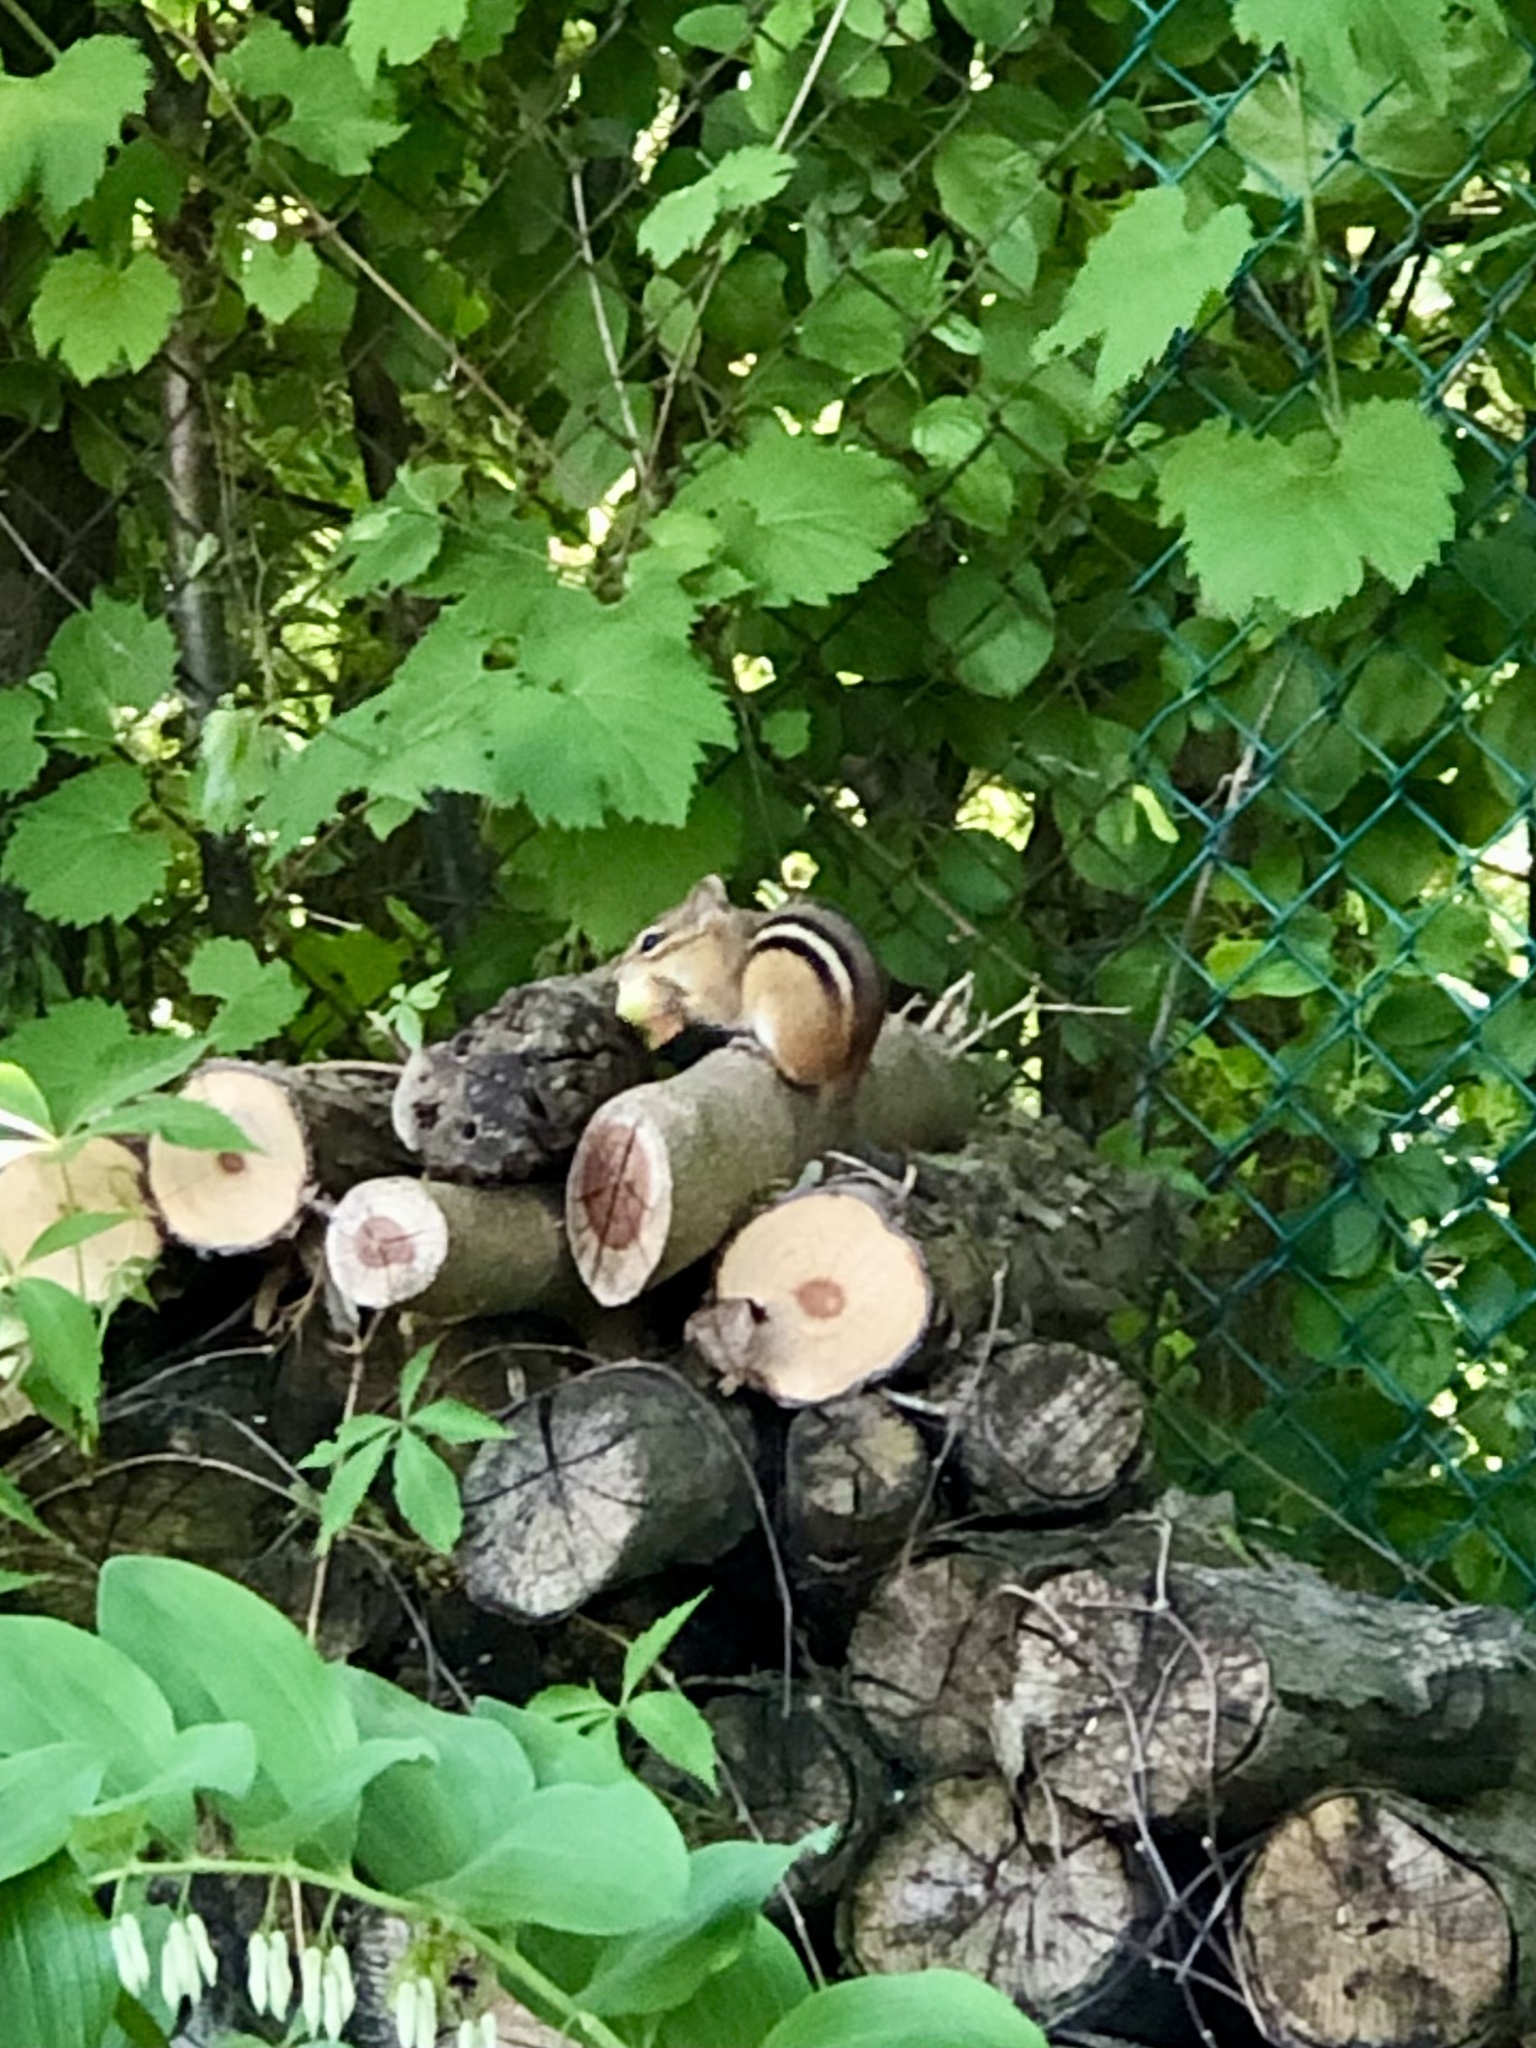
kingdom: Animalia
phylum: Chordata
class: Mammalia
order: Rodentia
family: Sciuridae
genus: Tamias
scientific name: Tamias striatus
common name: Eastern chipmunk
